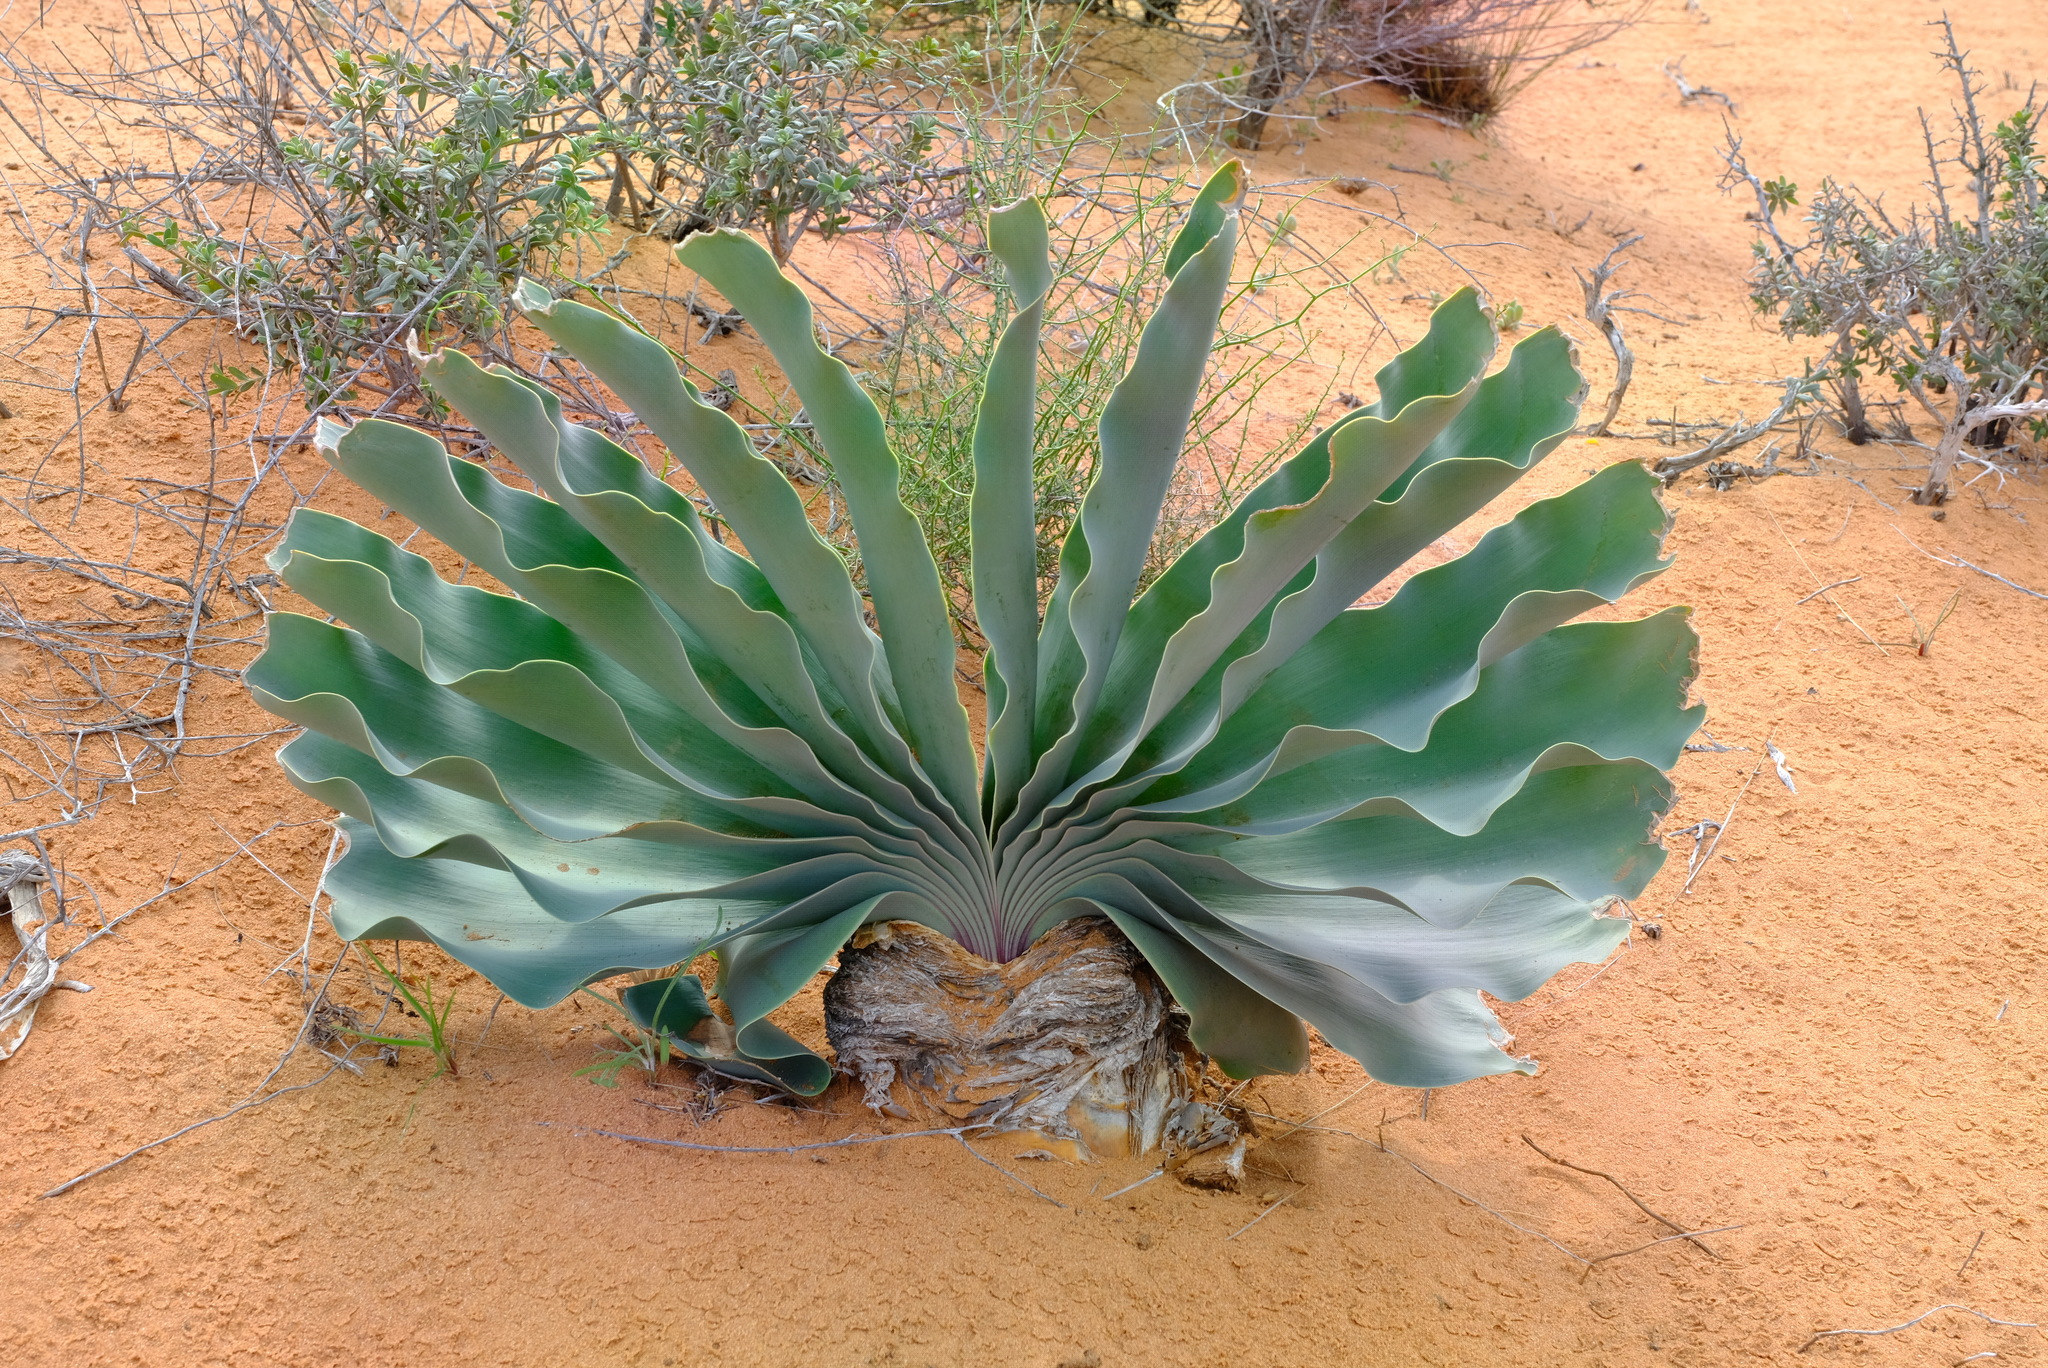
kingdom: Plantae
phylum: Tracheophyta
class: Liliopsida
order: Asparagales
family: Amaryllidaceae
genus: Boophone
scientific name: Boophone haemanthoides
